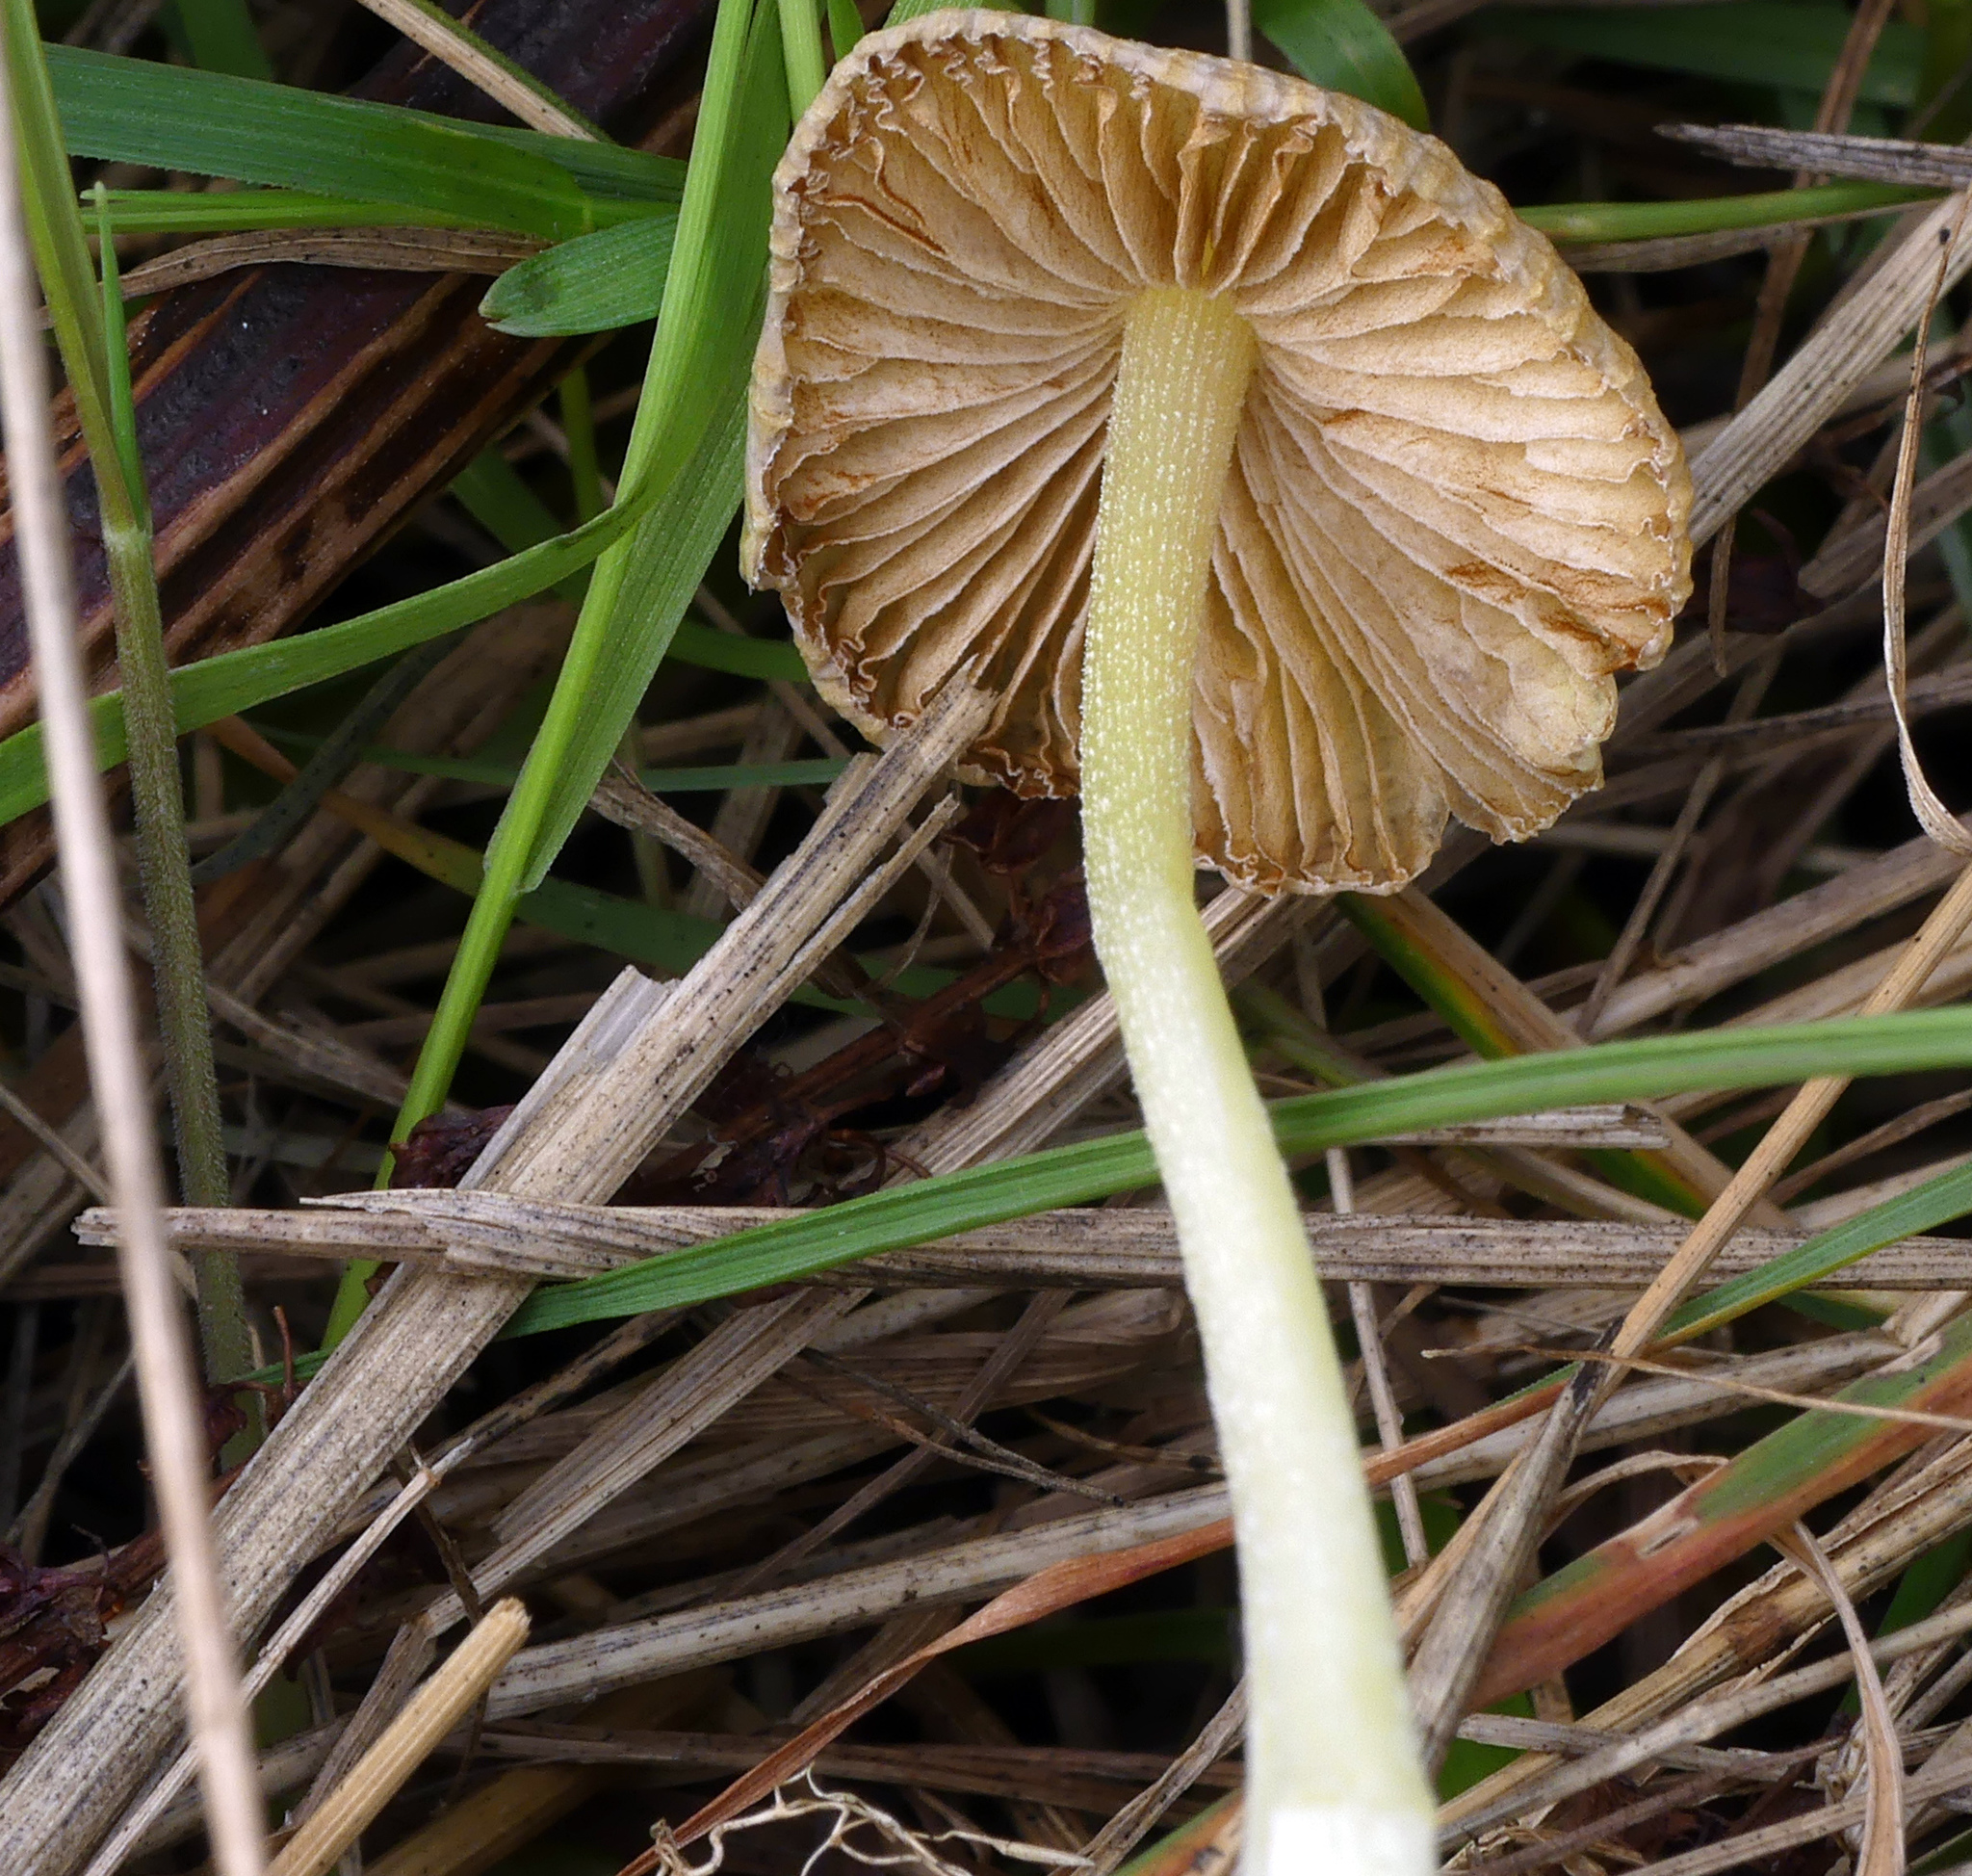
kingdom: Fungi
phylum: Basidiomycota
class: Agaricomycetes
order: Agaricales
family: Bolbitiaceae
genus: Bolbitius
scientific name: Bolbitius titubans
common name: Yellow fieldcap
